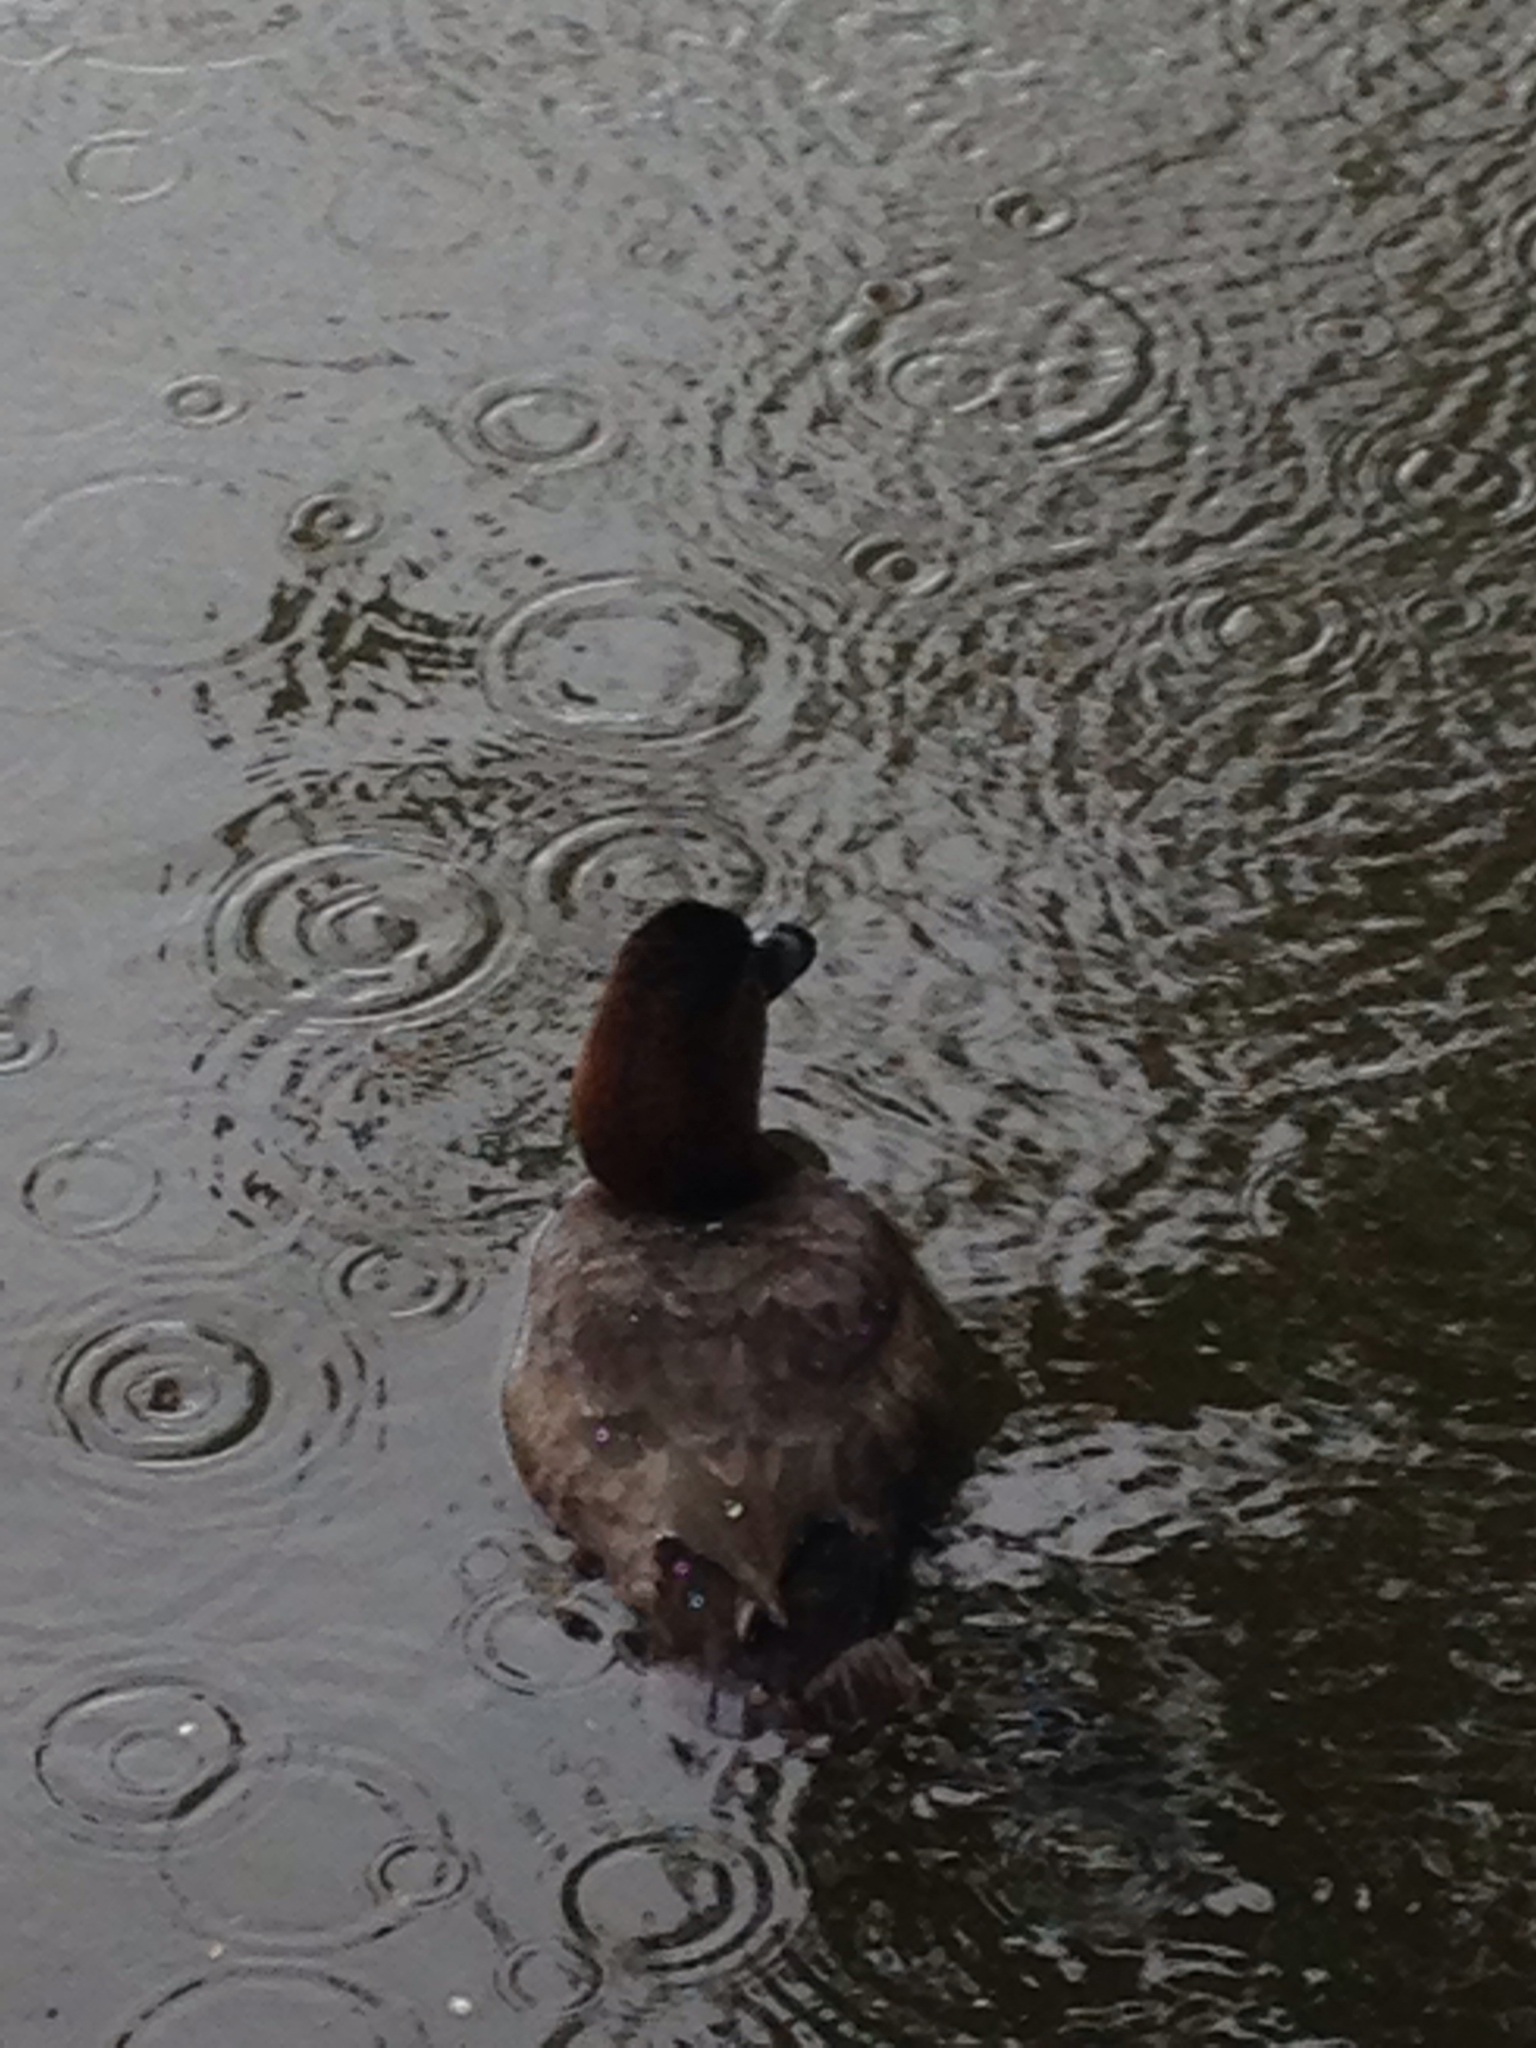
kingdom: Animalia
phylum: Chordata
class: Aves
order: Anseriformes
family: Anatidae
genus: Aythya
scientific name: Aythya ferina
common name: Common pochard
